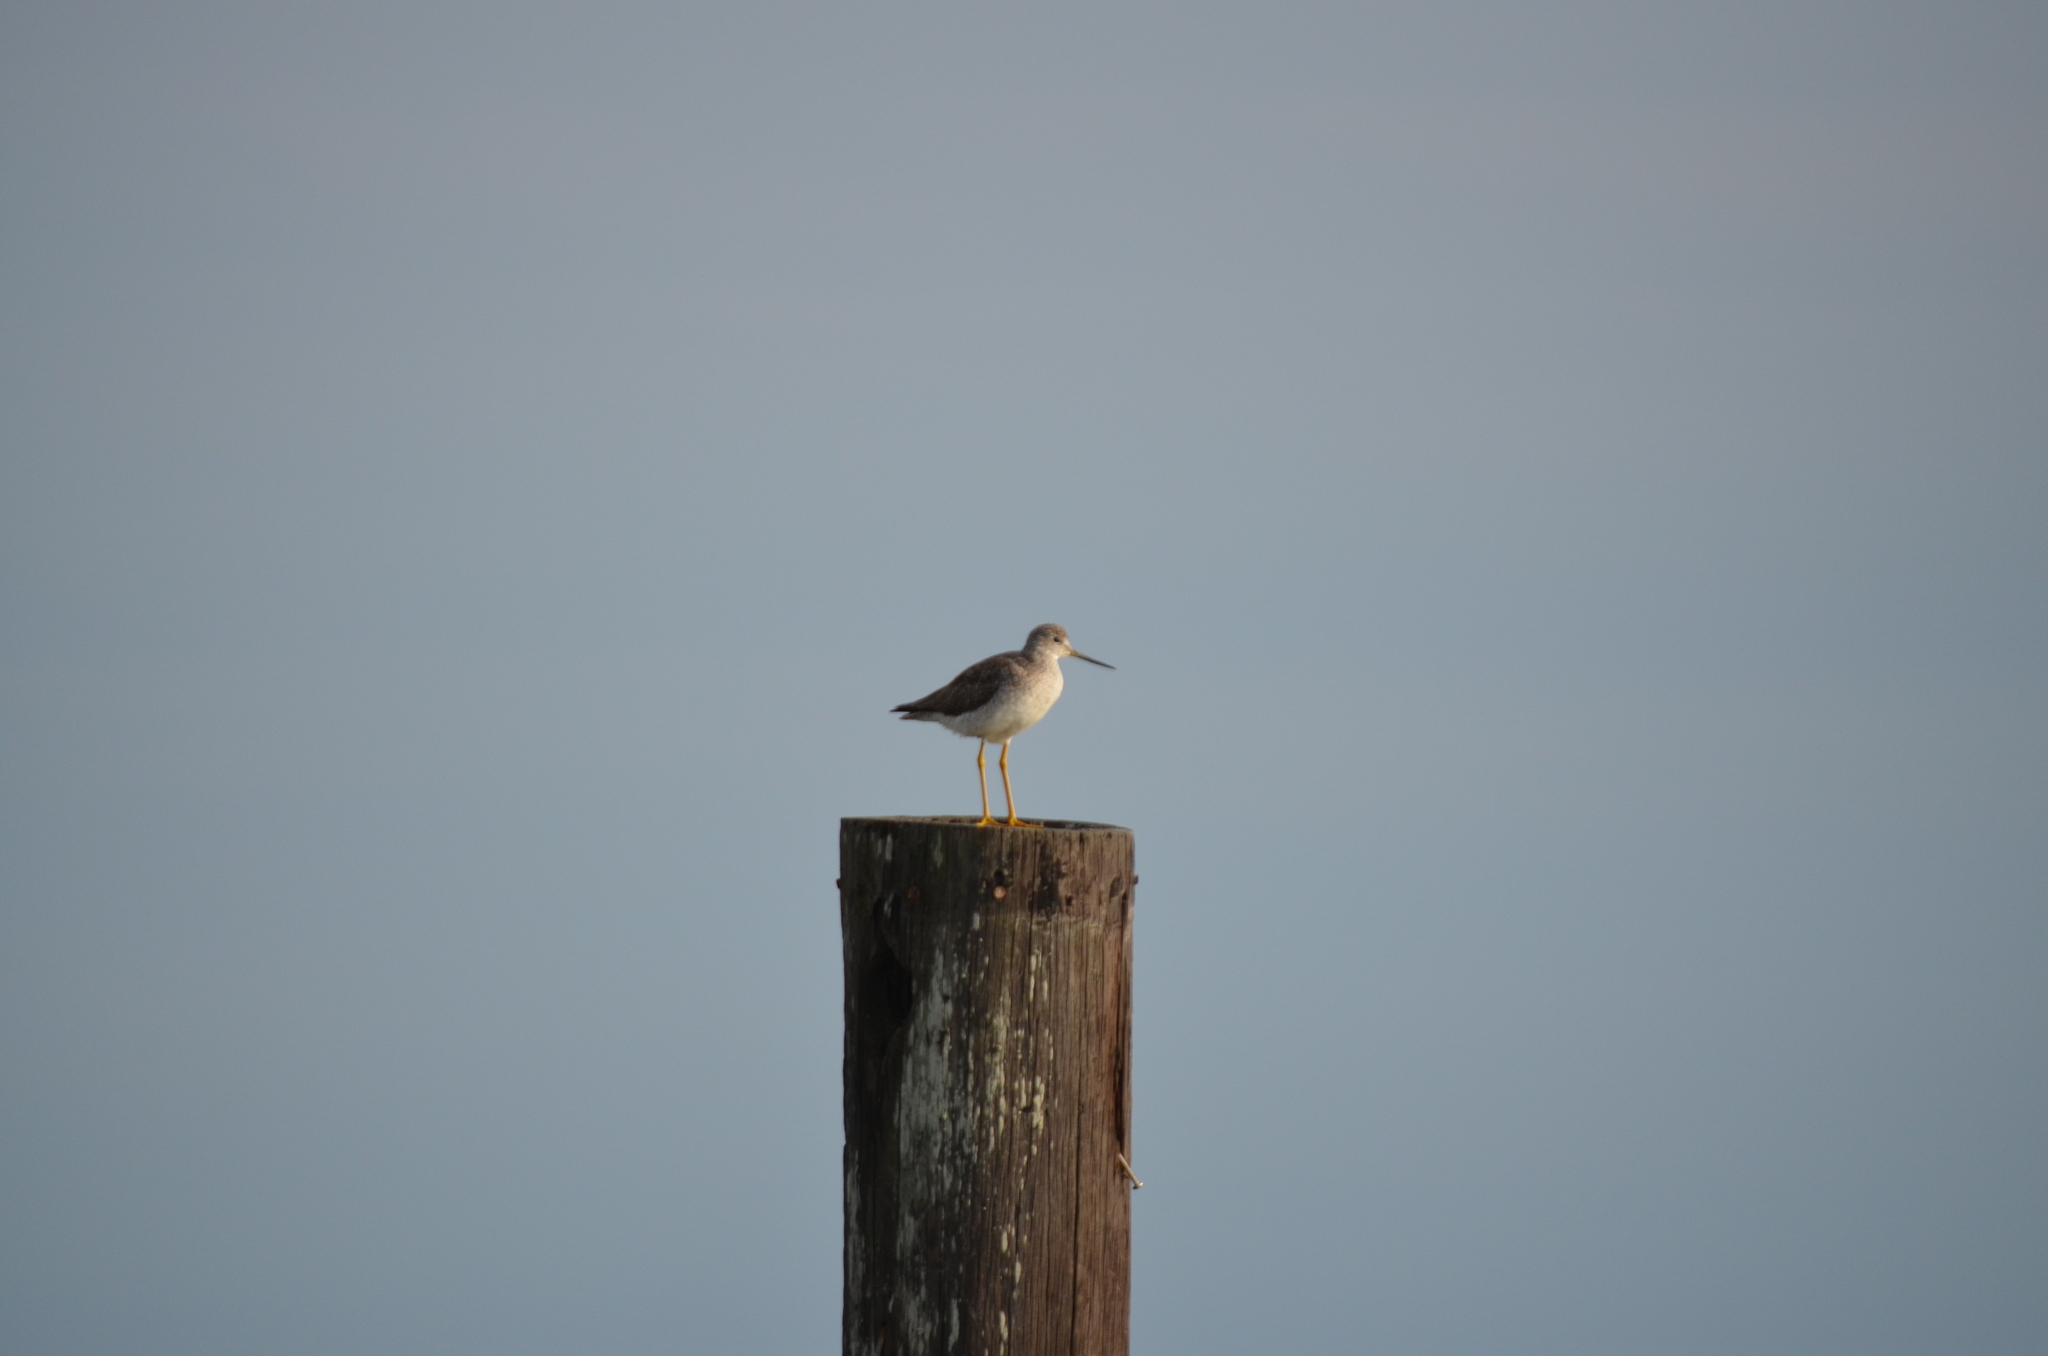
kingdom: Animalia
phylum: Chordata
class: Aves
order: Charadriiformes
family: Scolopacidae
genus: Tringa
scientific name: Tringa melanoleuca
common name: Greater yellowlegs
